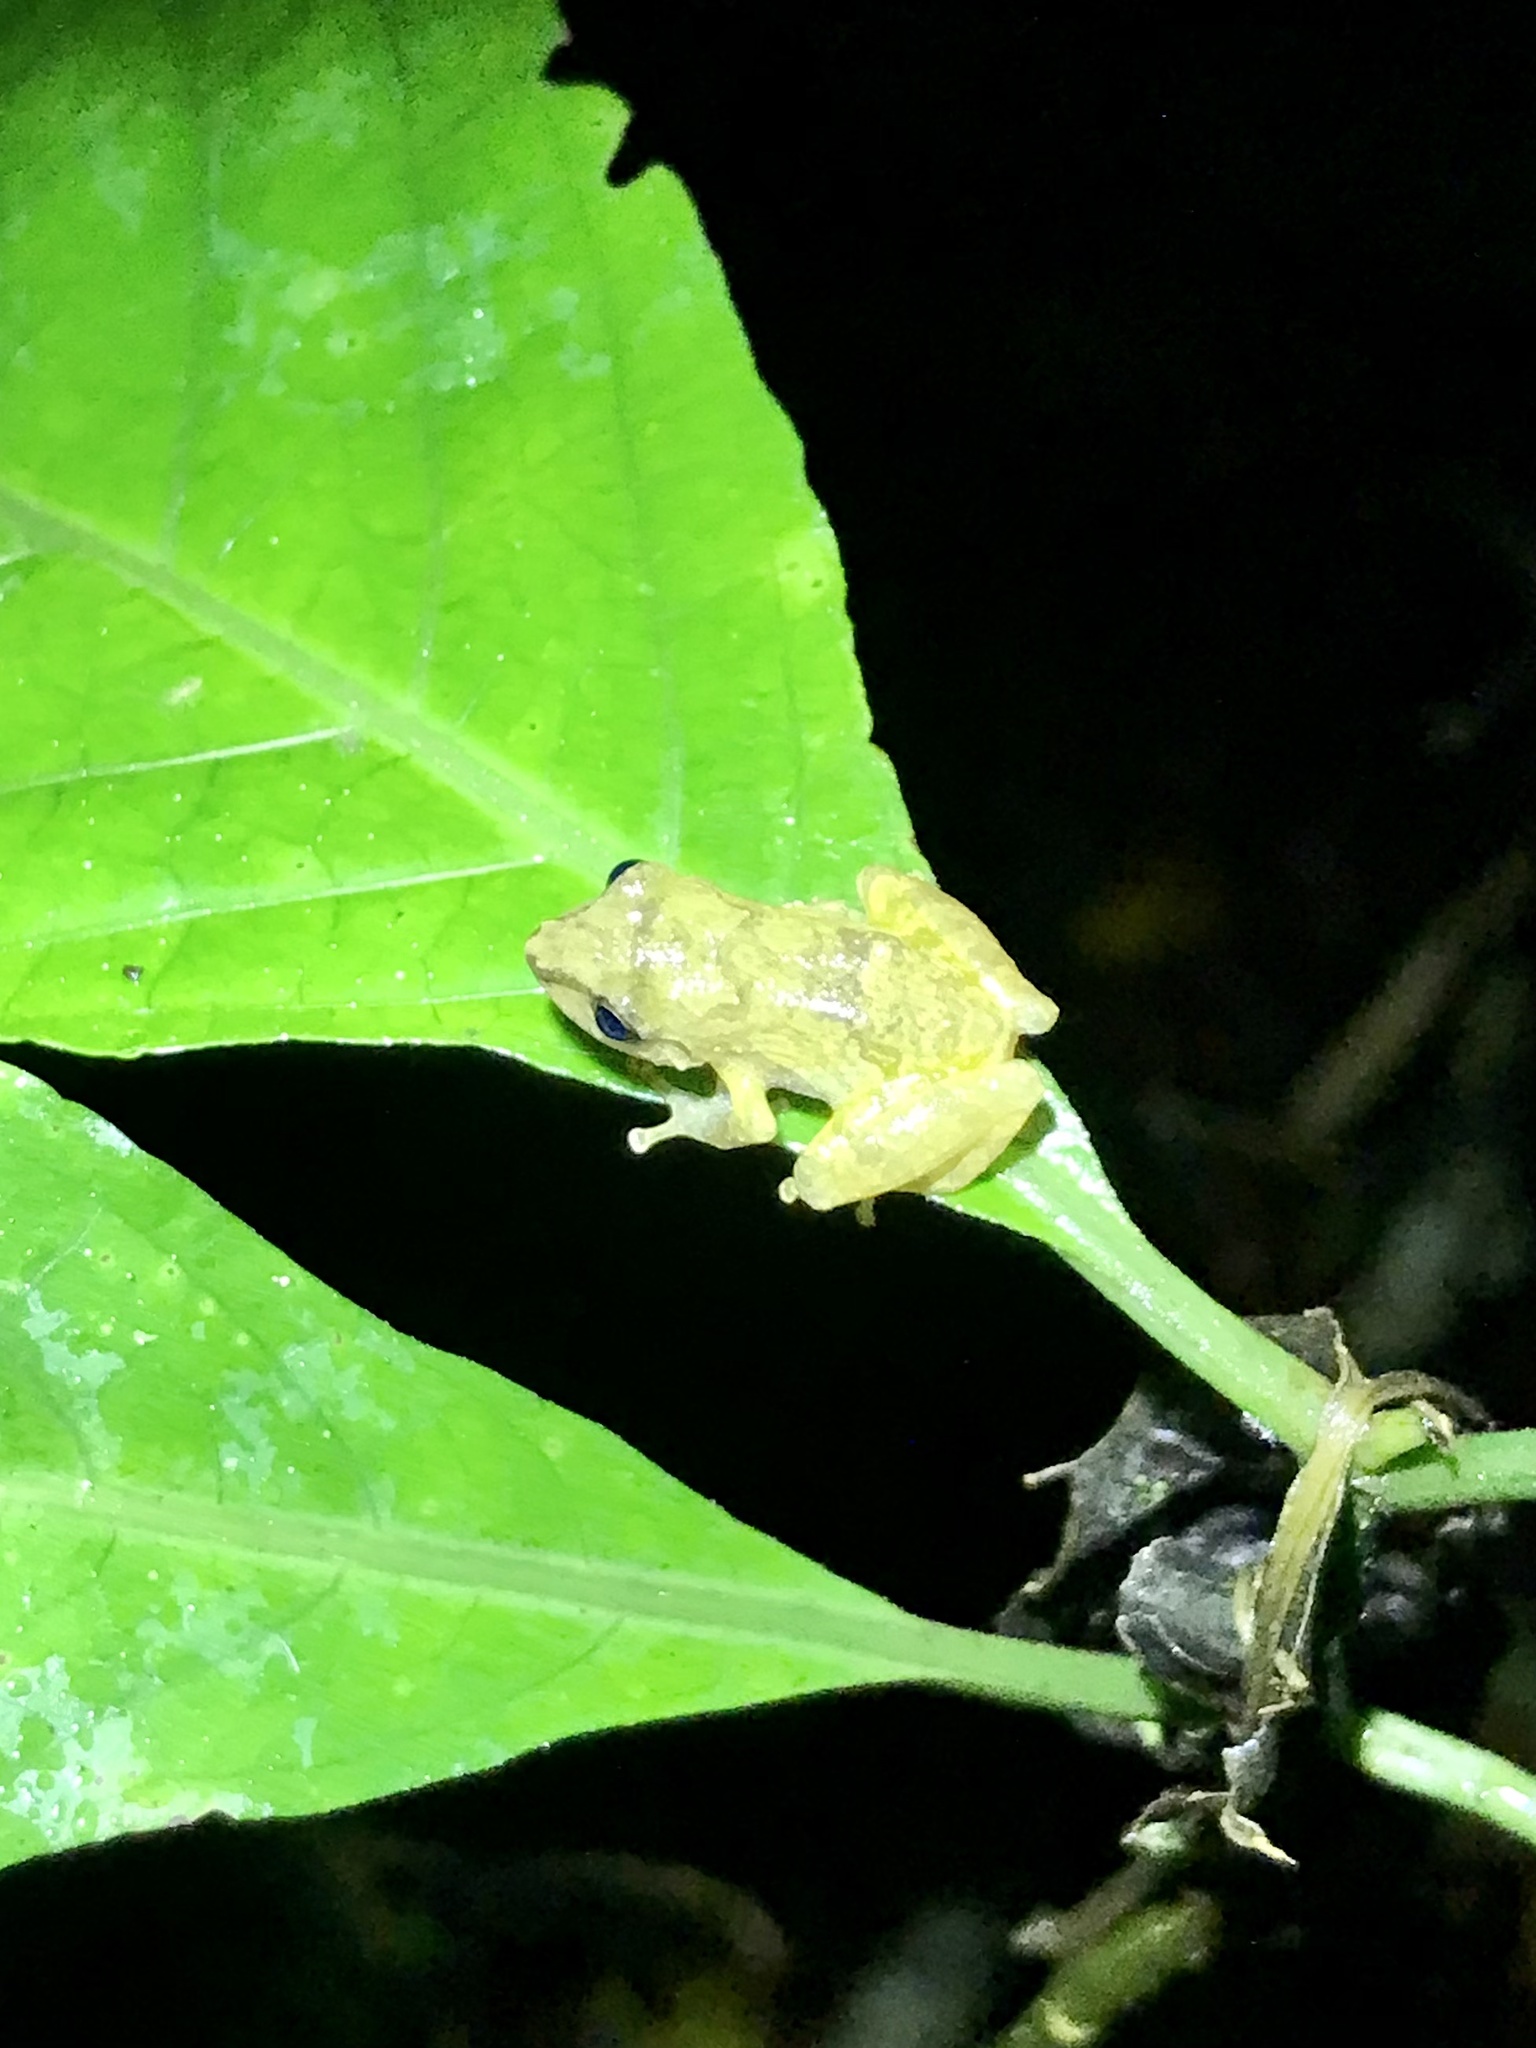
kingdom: Animalia
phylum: Chordata
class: Amphibia
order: Anura
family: Craugastoridae
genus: Pristimantis
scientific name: Pristimantis ridens
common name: Rio san juan robber frog
